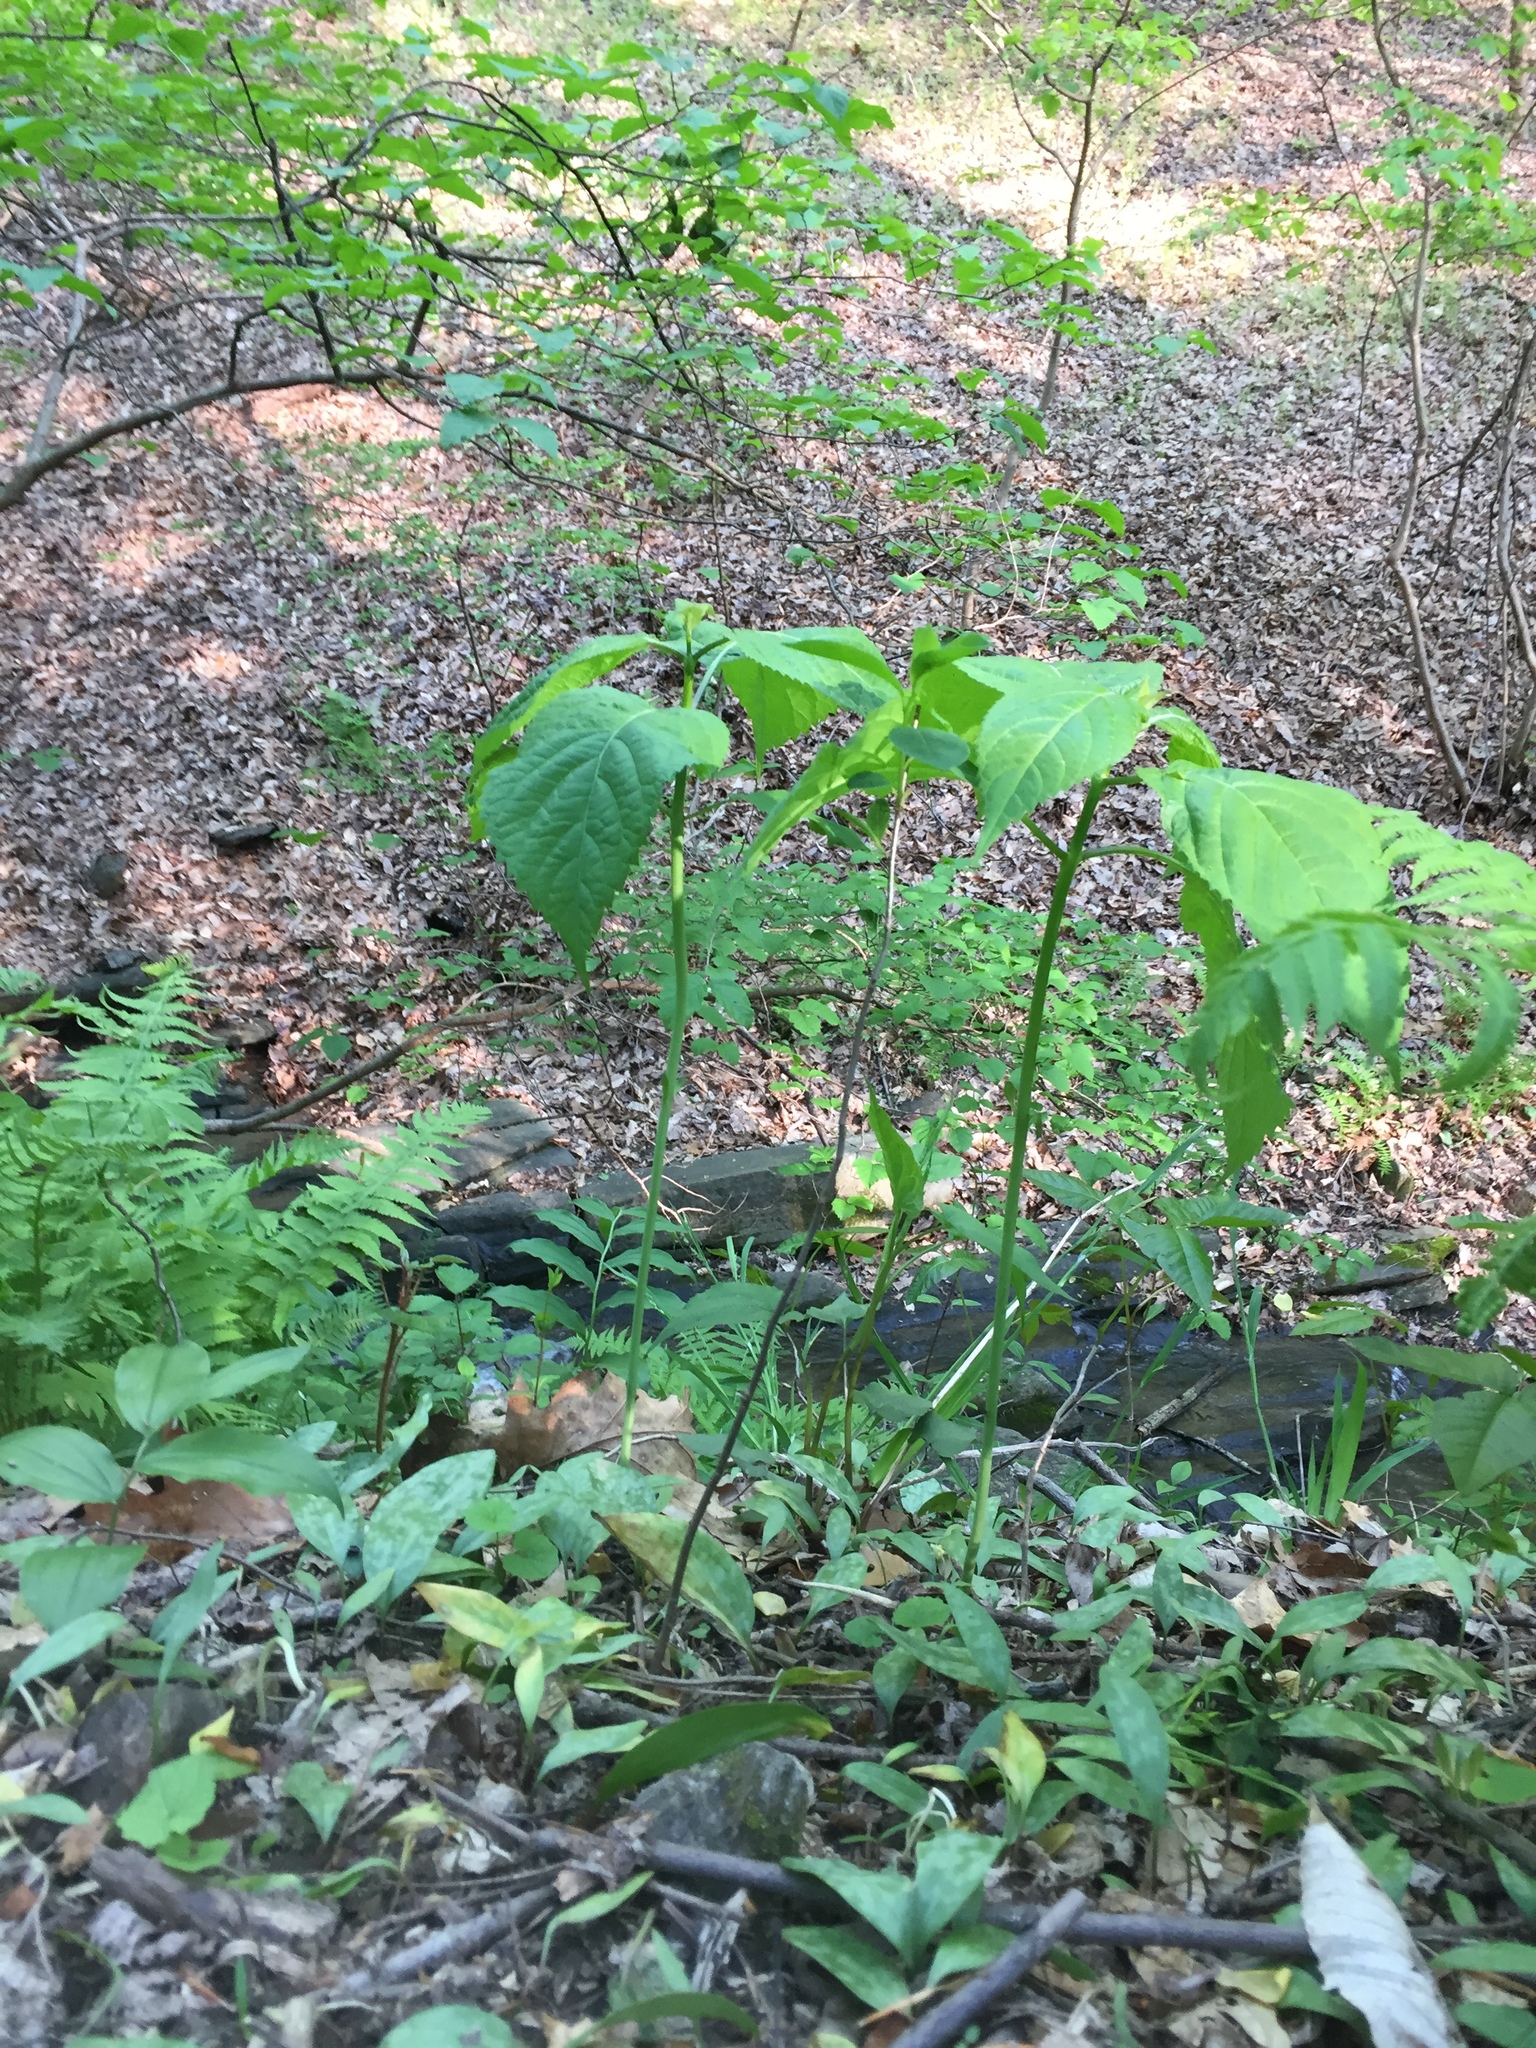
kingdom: Plantae
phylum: Tracheophyta
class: Magnoliopsida
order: Lamiales
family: Lamiaceae
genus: Collinsonia
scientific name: Collinsonia canadensis
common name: Northern horsebalm
